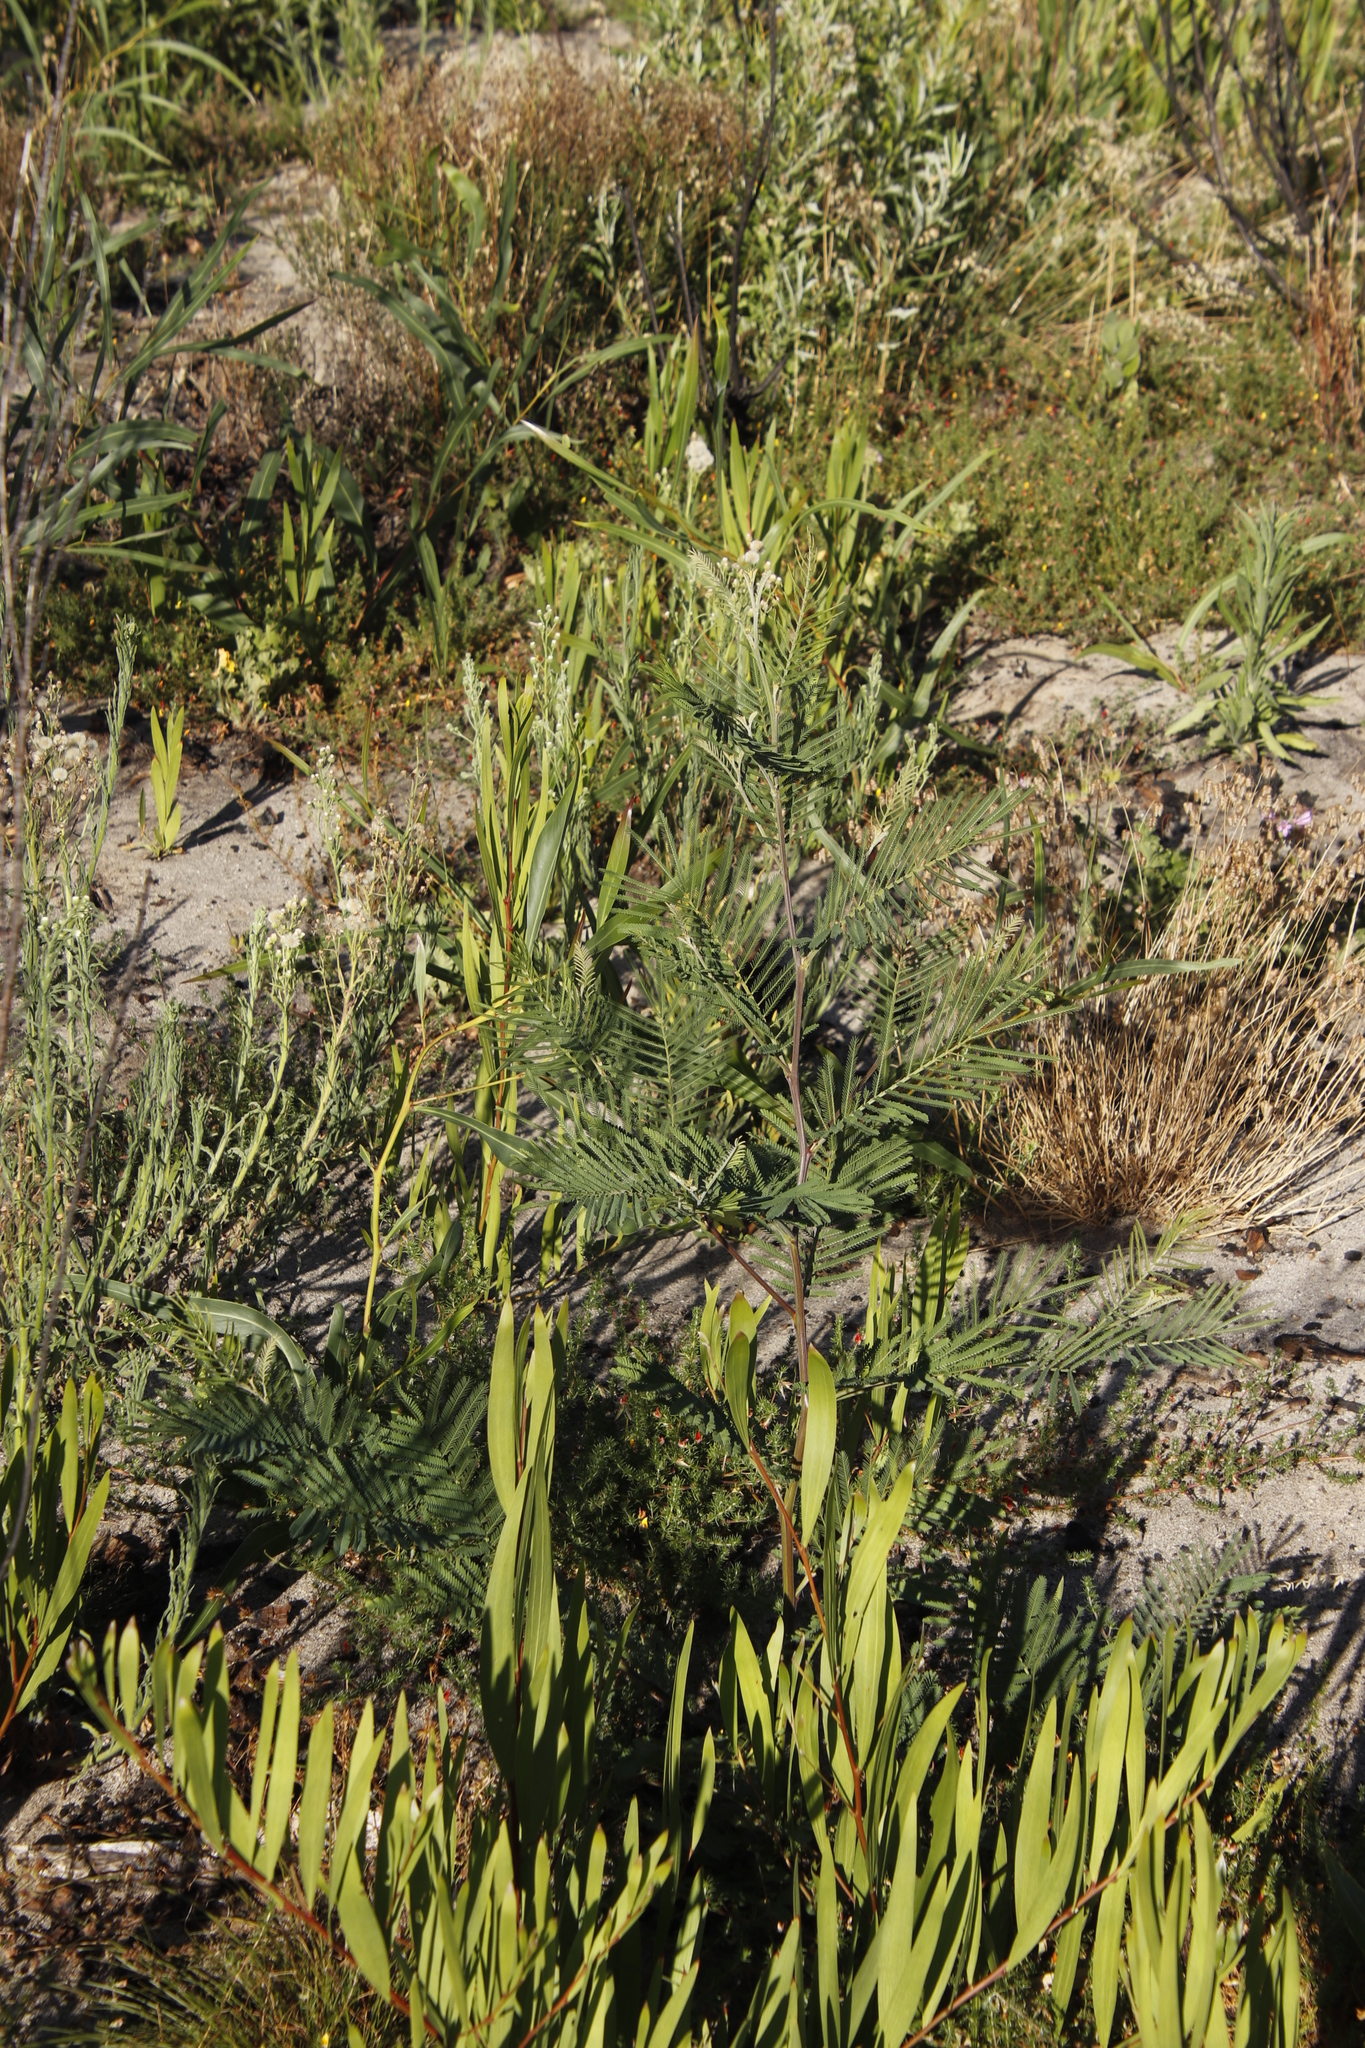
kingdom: Plantae
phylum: Tracheophyta
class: Magnoliopsida
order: Fabales
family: Fabaceae
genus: Acacia
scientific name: Acacia mearnsii
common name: Black wattle
